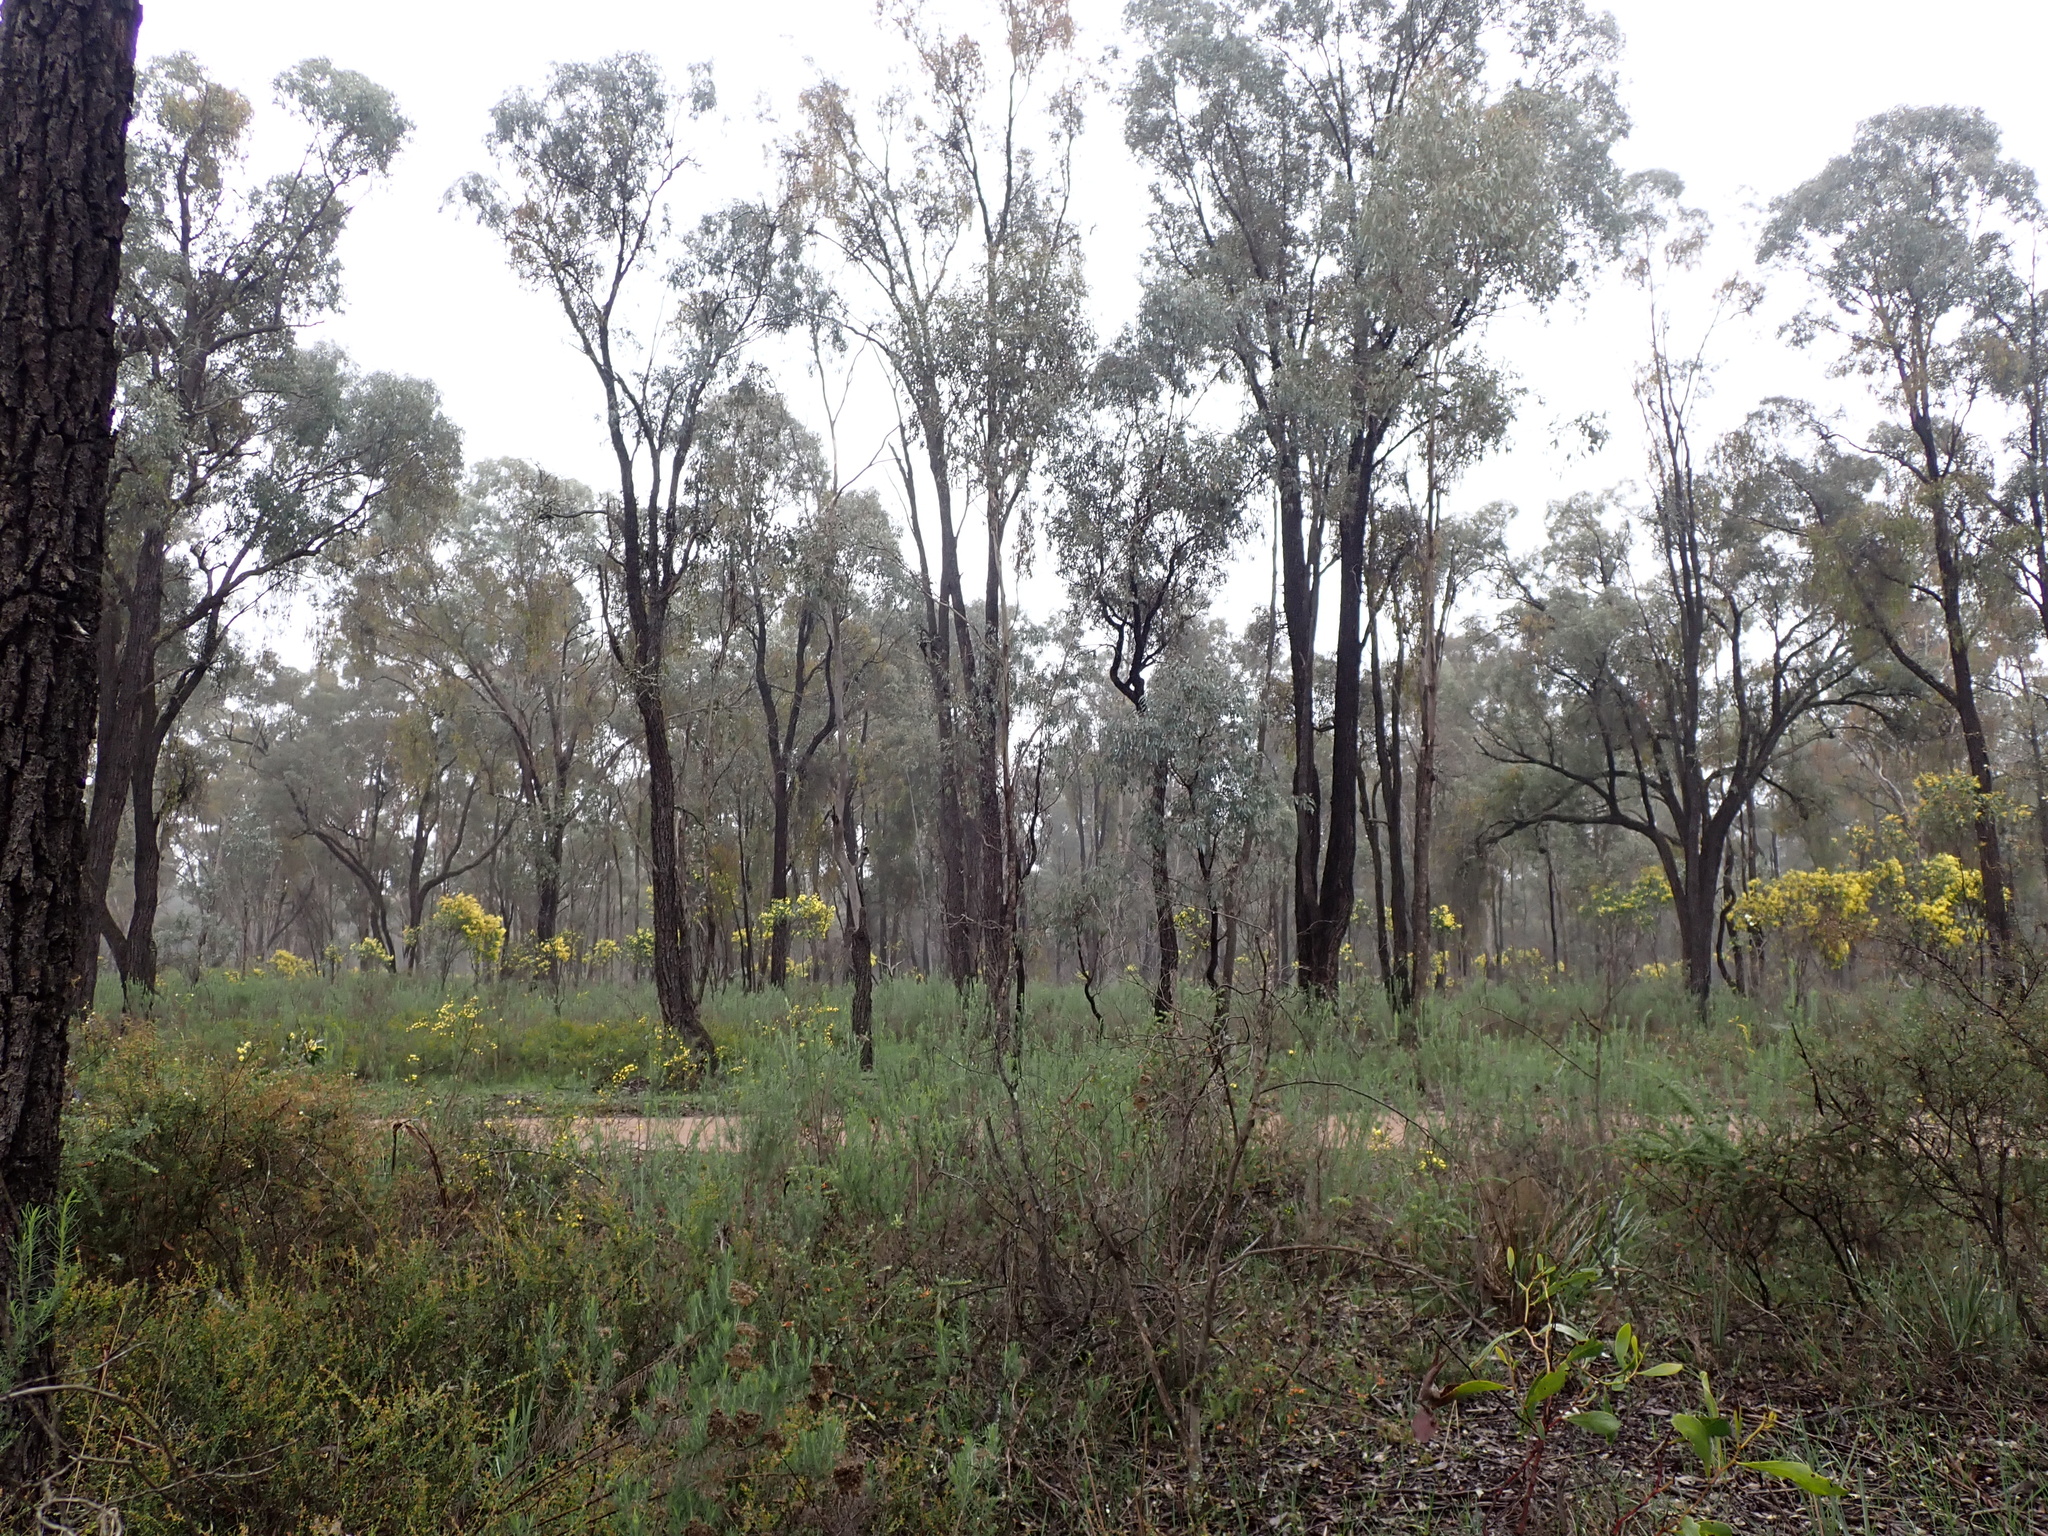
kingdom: Plantae
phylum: Tracheophyta
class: Magnoliopsida
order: Myrtales
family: Myrtaceae
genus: Eucalyptus
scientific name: Eucalyptus sideroxylon
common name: Red ironbark
